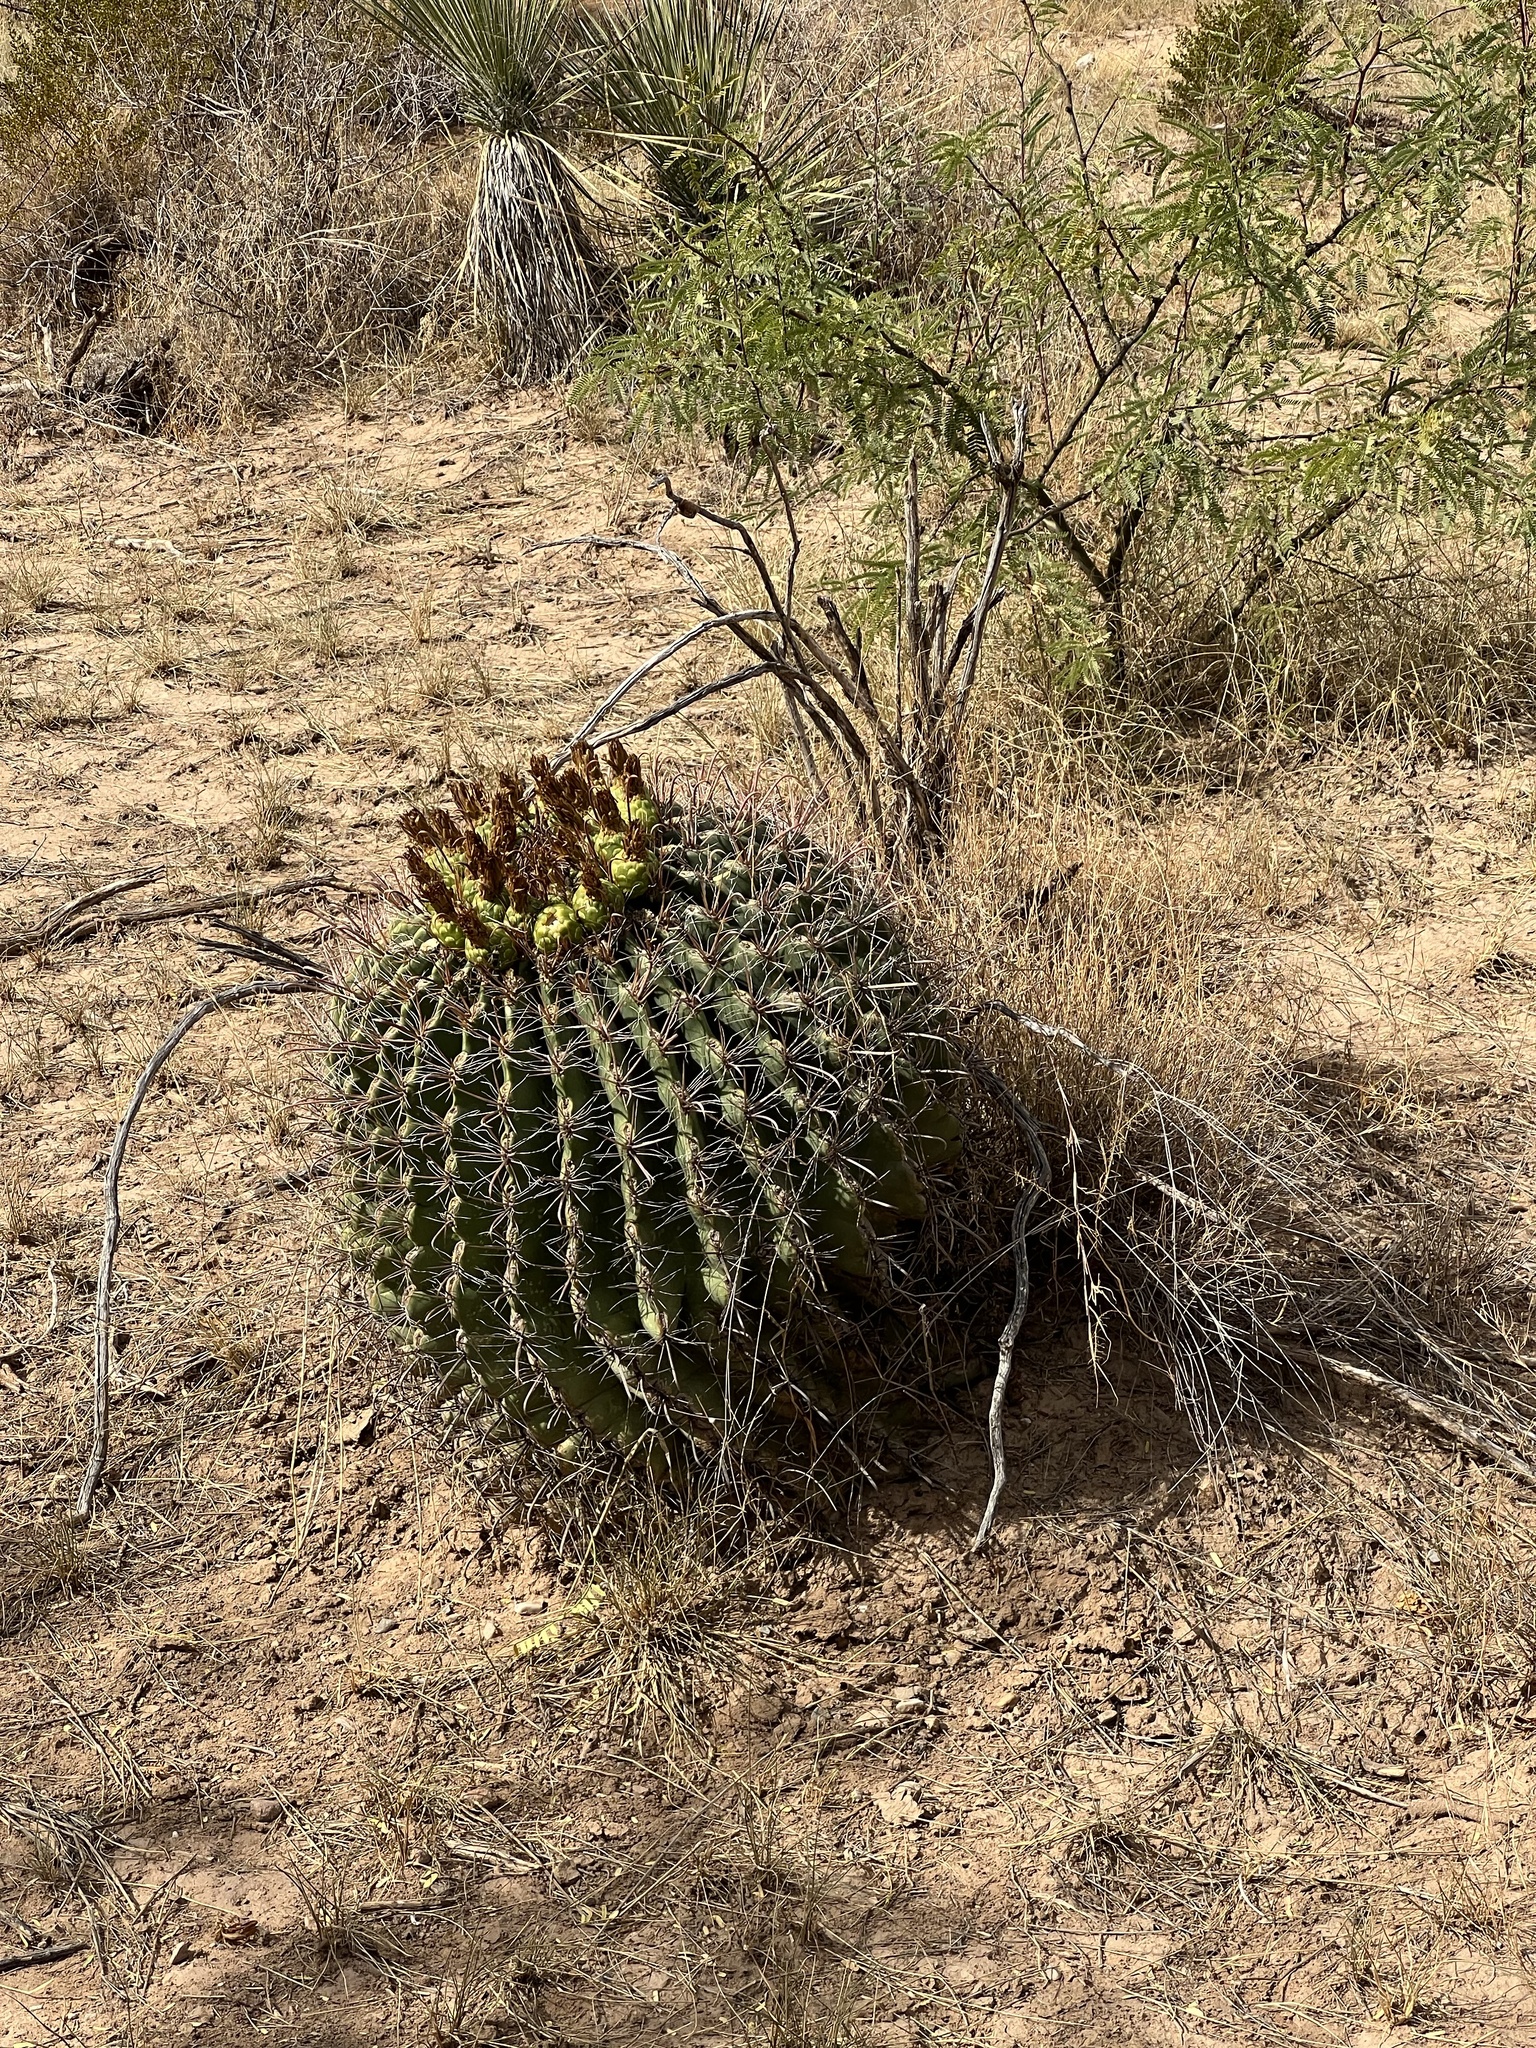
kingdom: Plantae
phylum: Tracheophyta
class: Magnoliopsida
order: Caryophyllales
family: Cactaceae
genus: Ferocactus
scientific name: Ferocactus wislizeni
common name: Candy barrel cactus
